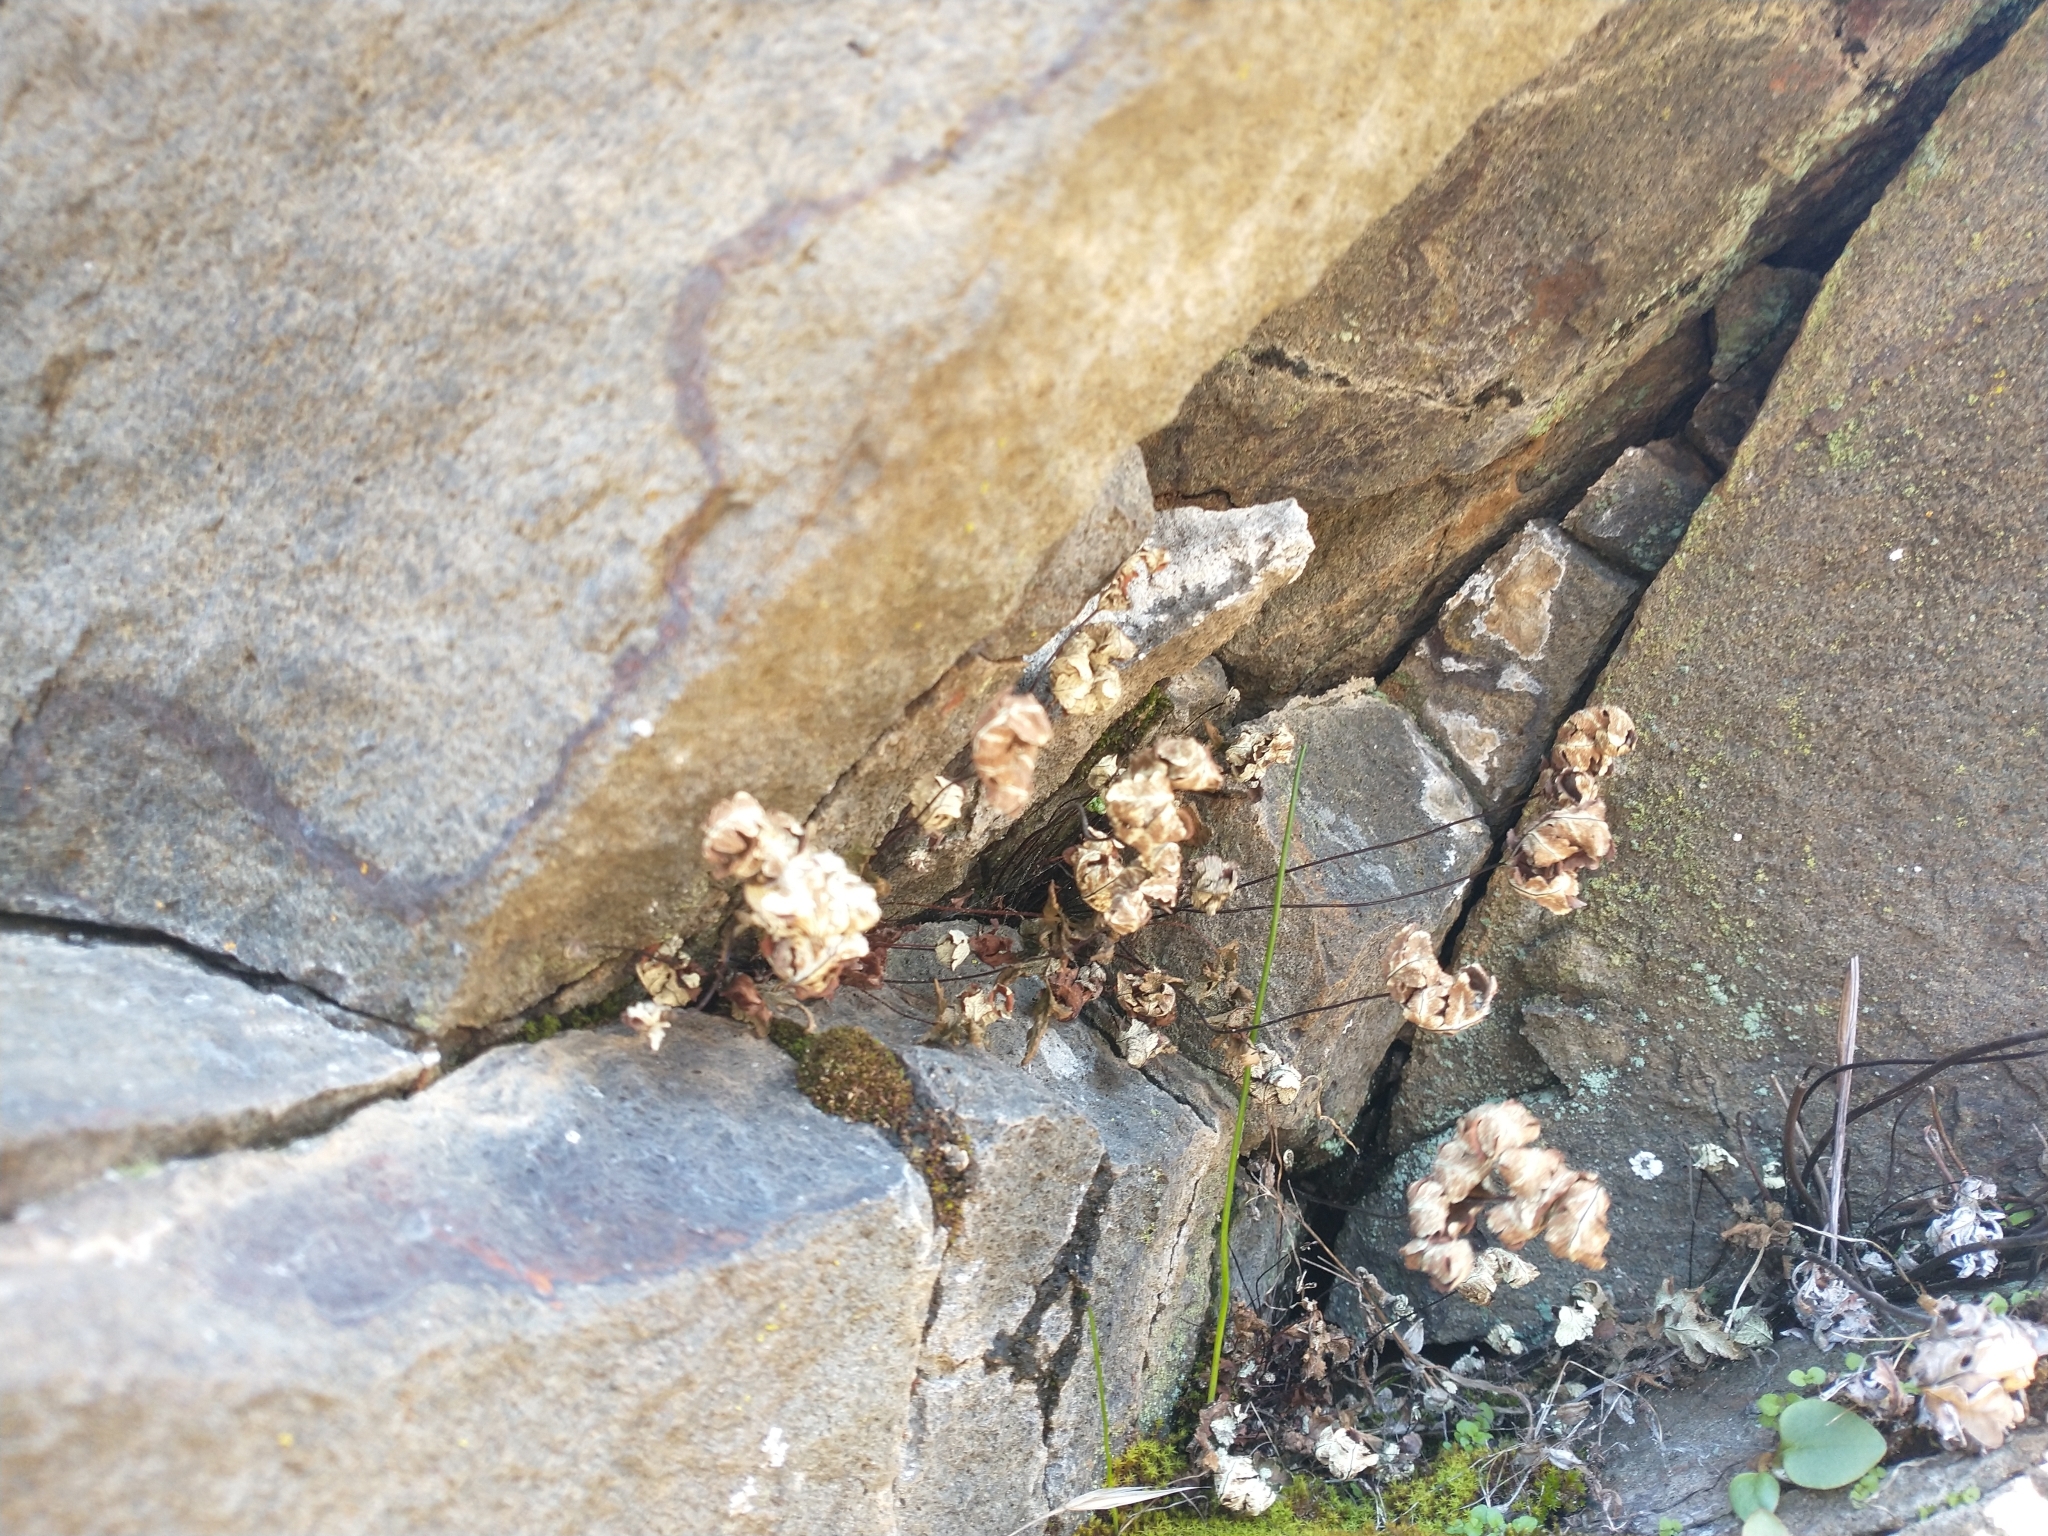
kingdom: Plantae
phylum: Tracheophyta
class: Polypodiopsida
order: Polypodiales
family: Pteridaceae
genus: Pentagramma
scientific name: Pentagramma triangularis
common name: Gold fern
